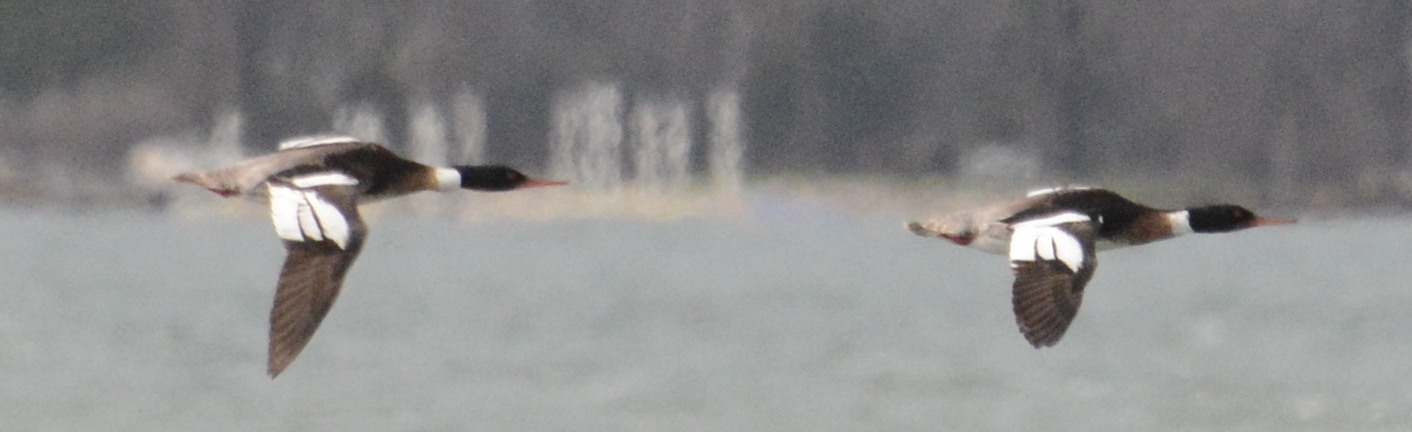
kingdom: Animalia
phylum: Chordata
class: Aves
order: Anseriformes
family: Anatidae
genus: Mergus
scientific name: Mergus serrator
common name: Red-breasted merganser
